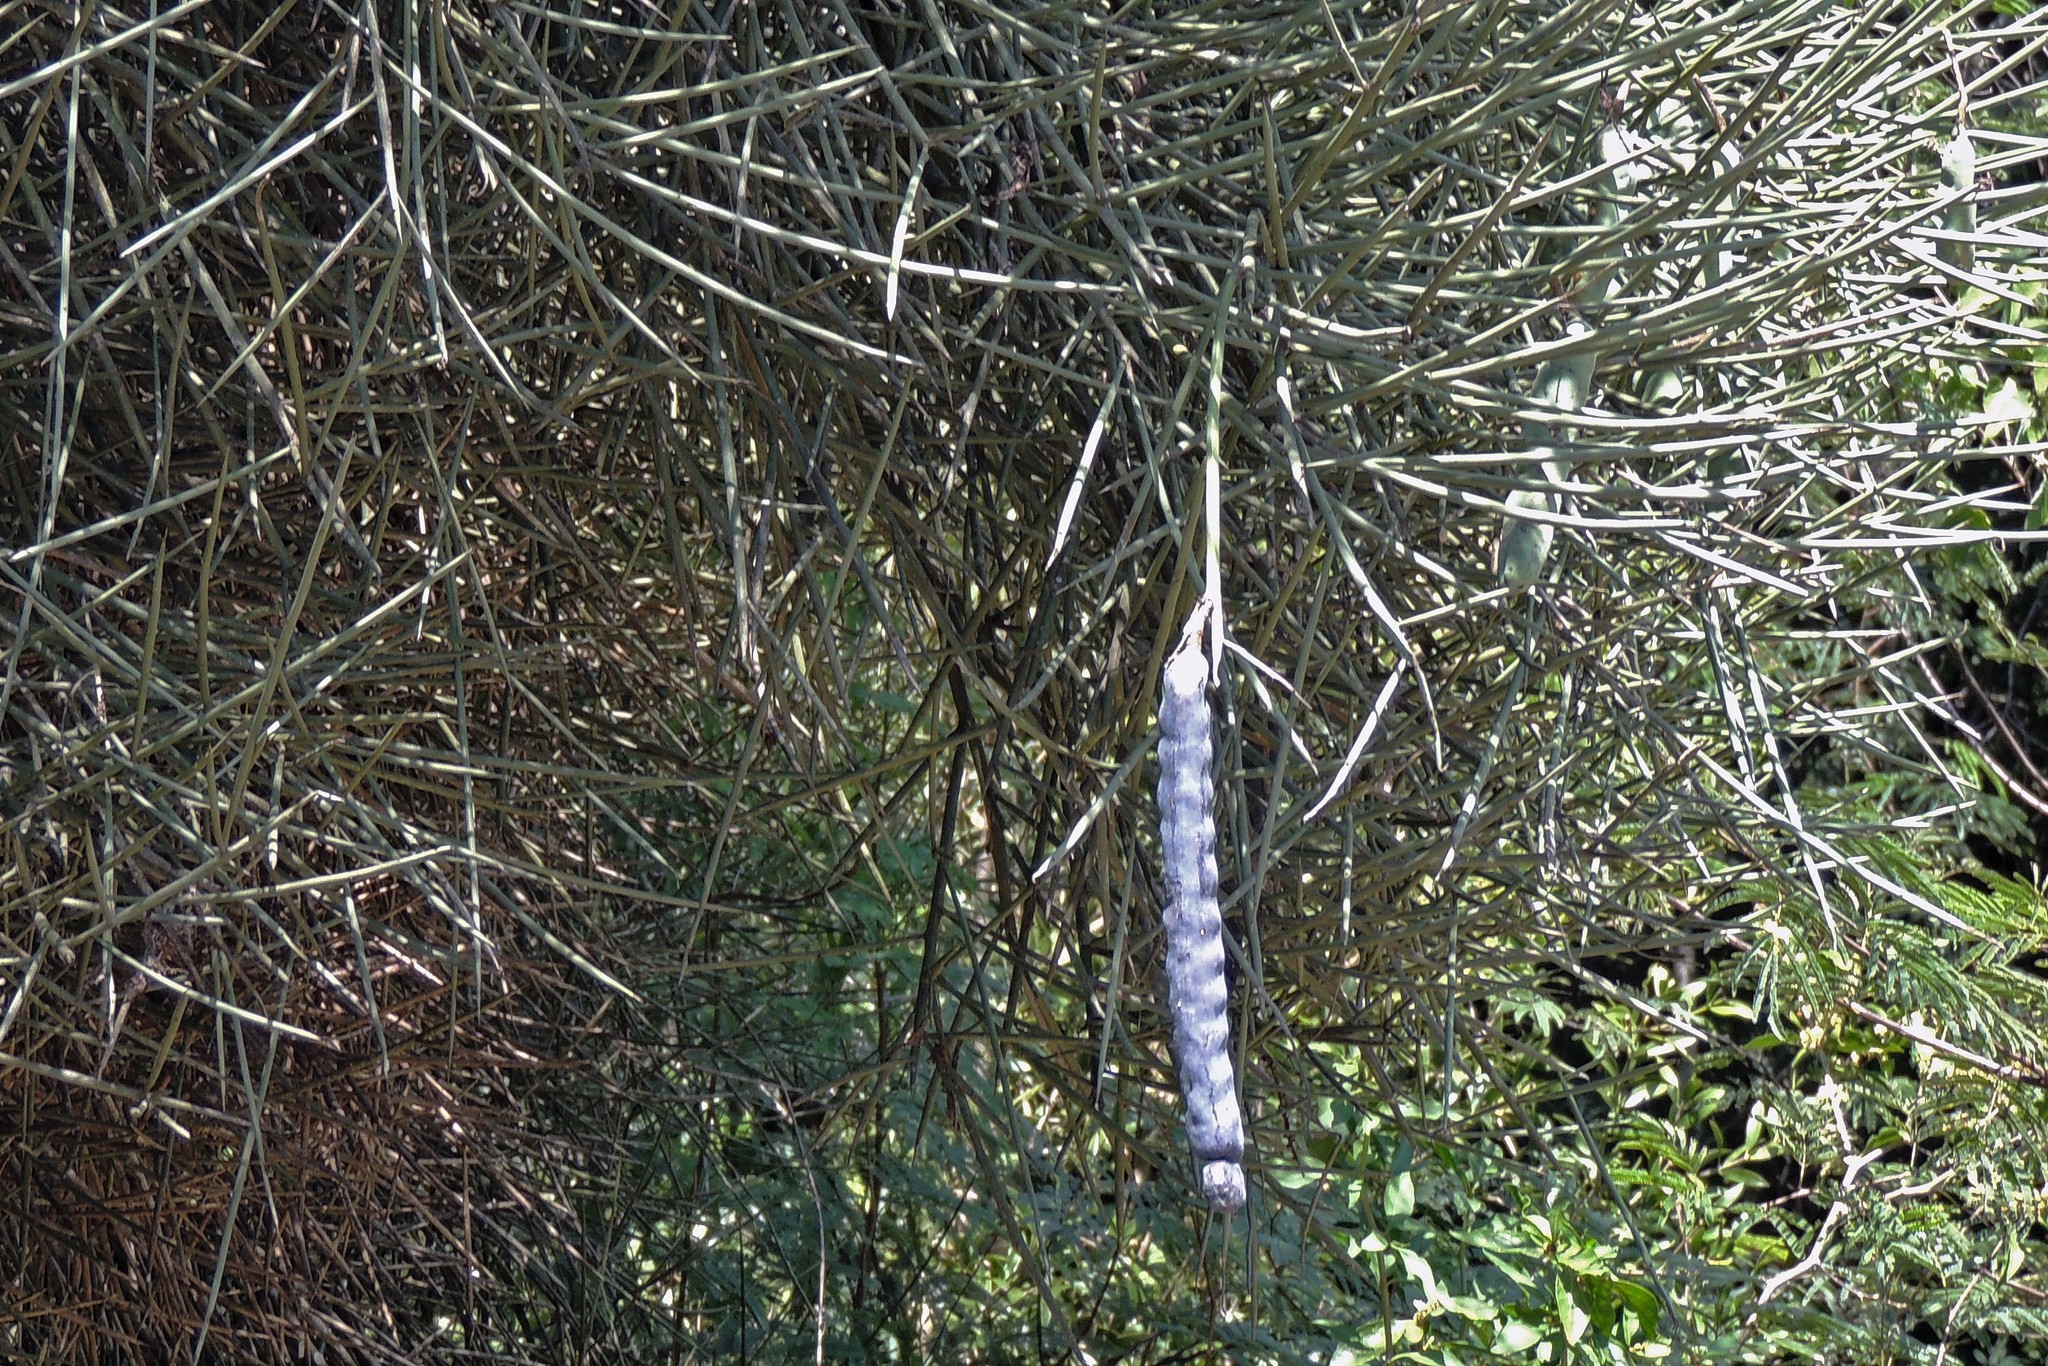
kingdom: Plantae
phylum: Tracheophyta
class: Magnoliopsida
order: Fabales
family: Fabaceae
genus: Prosopis
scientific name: Prosopis kuntzei
